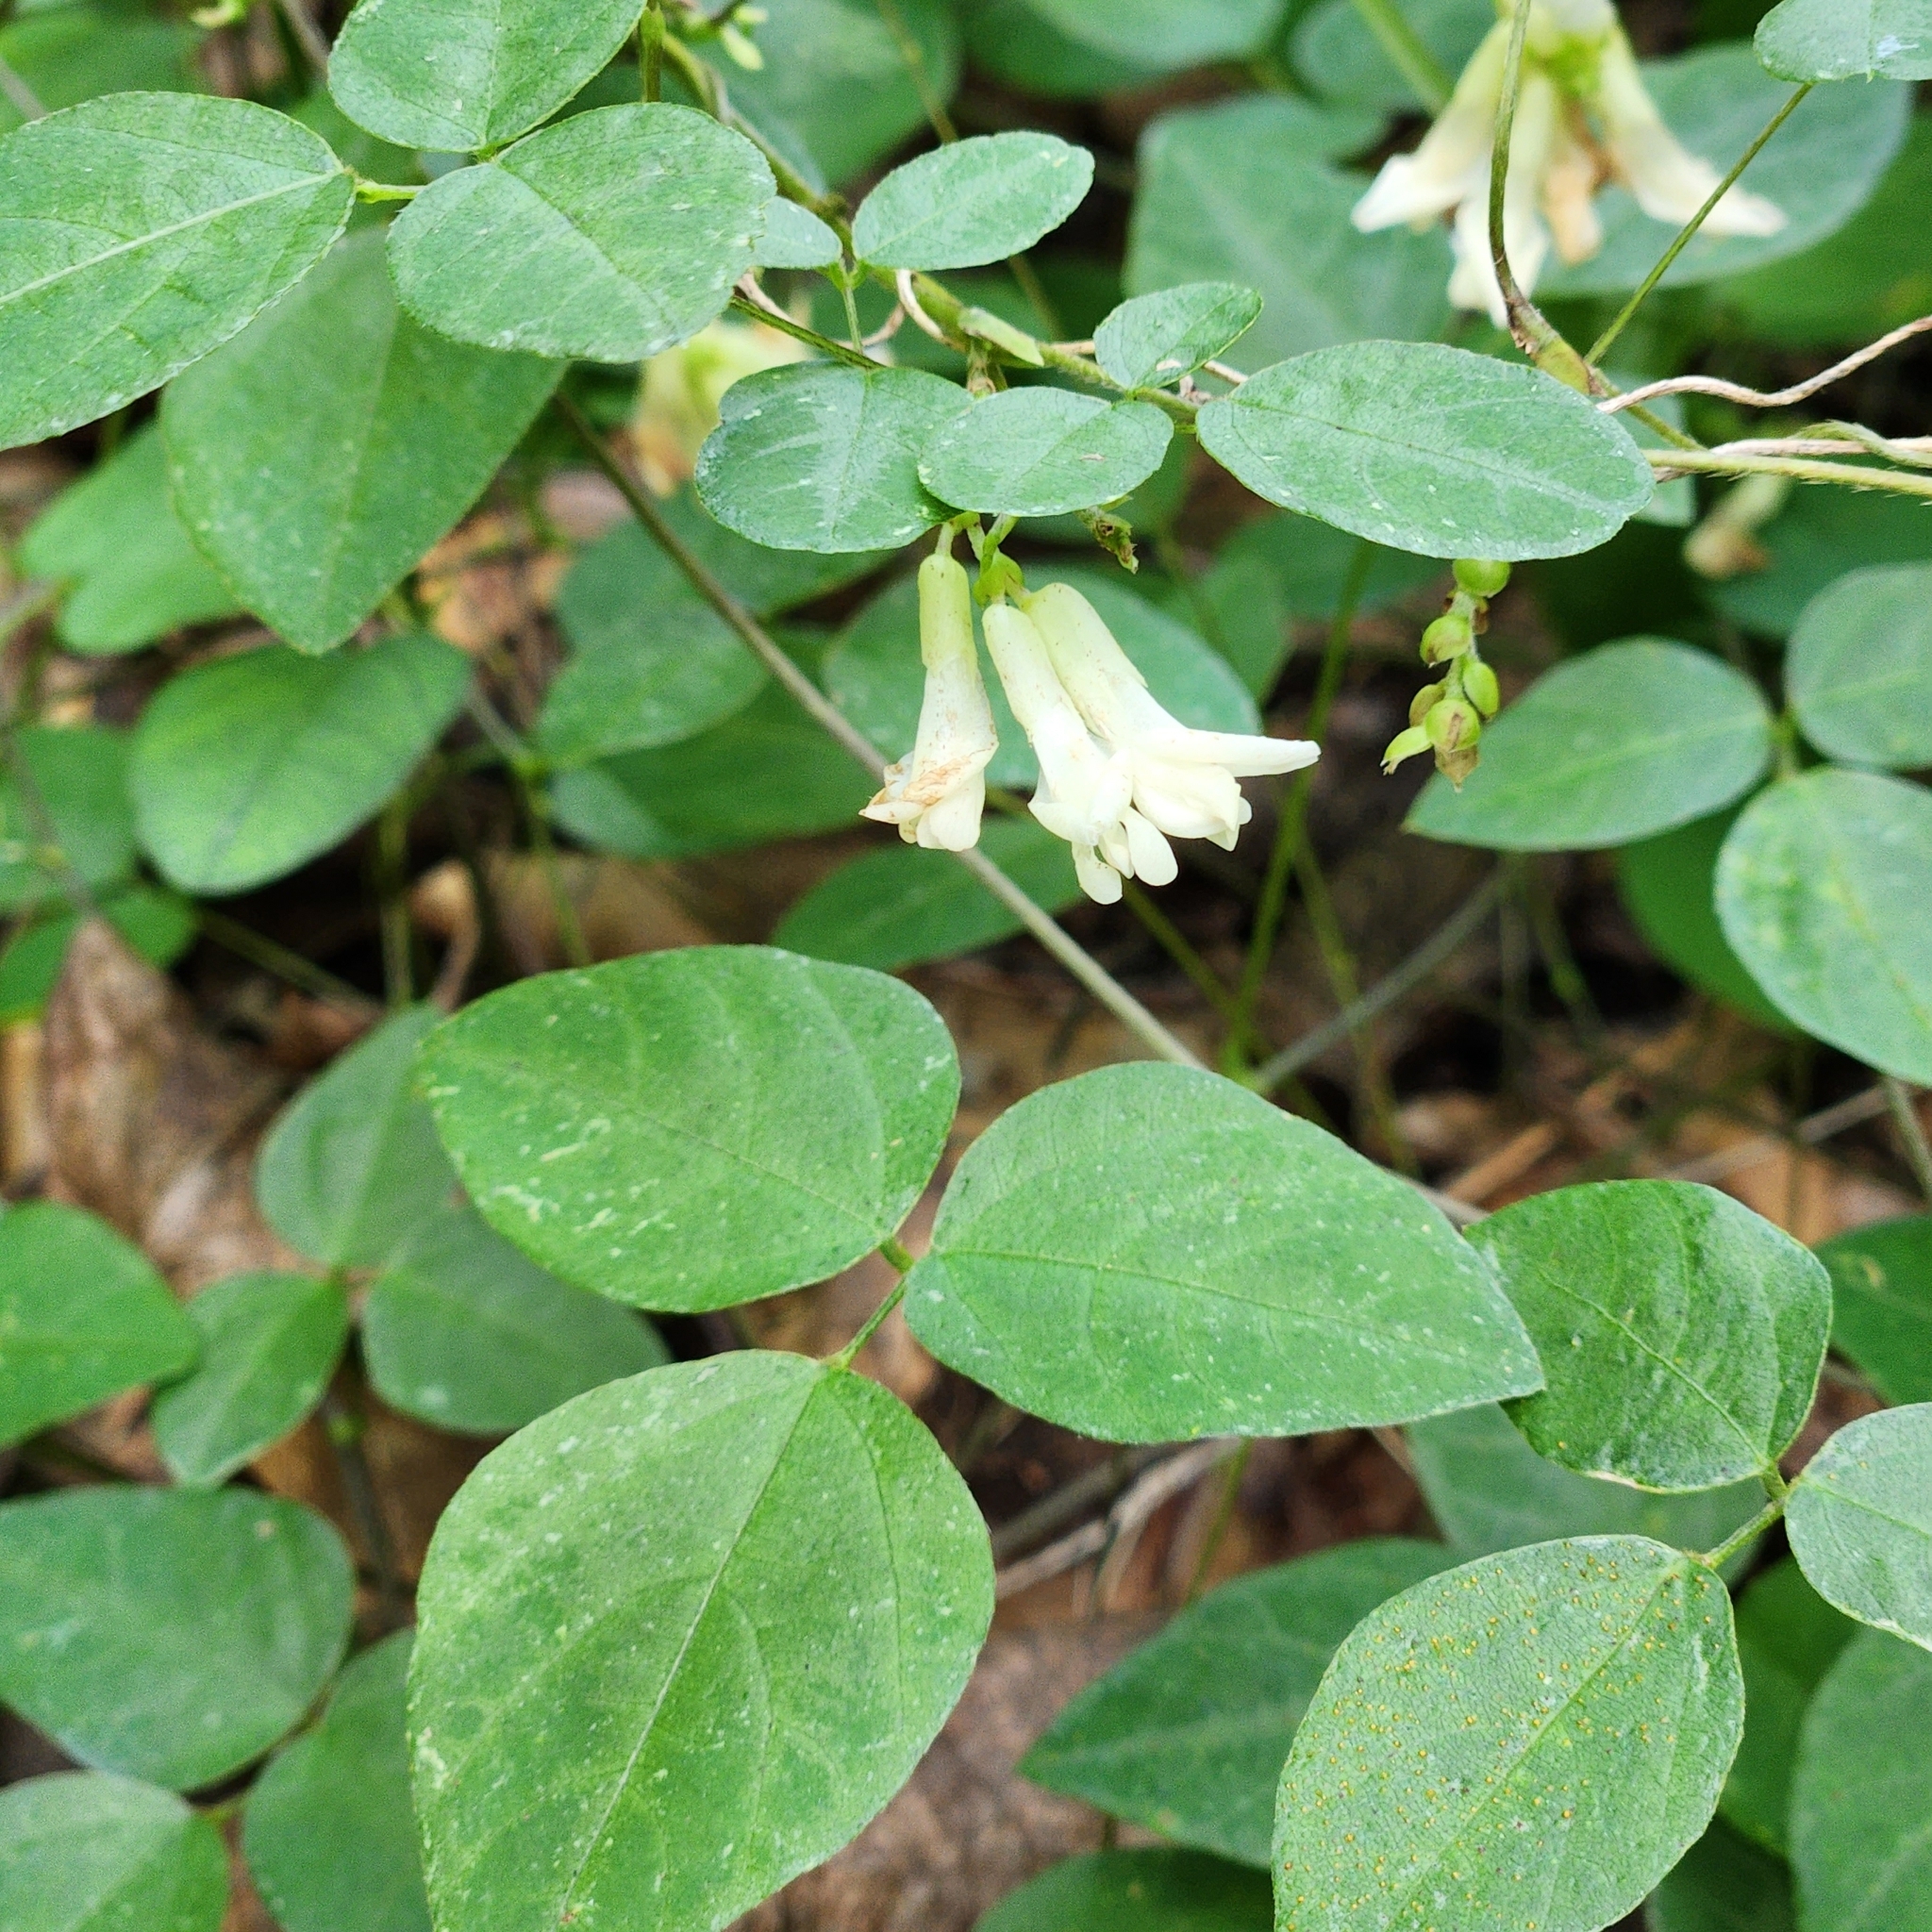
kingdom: Plantae
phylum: Tracheophyta
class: Magnoliopsida
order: Fabales
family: Fabaceae
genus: Amphicarpaea
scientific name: Amphicarpaea bracteata
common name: American hog peanut
